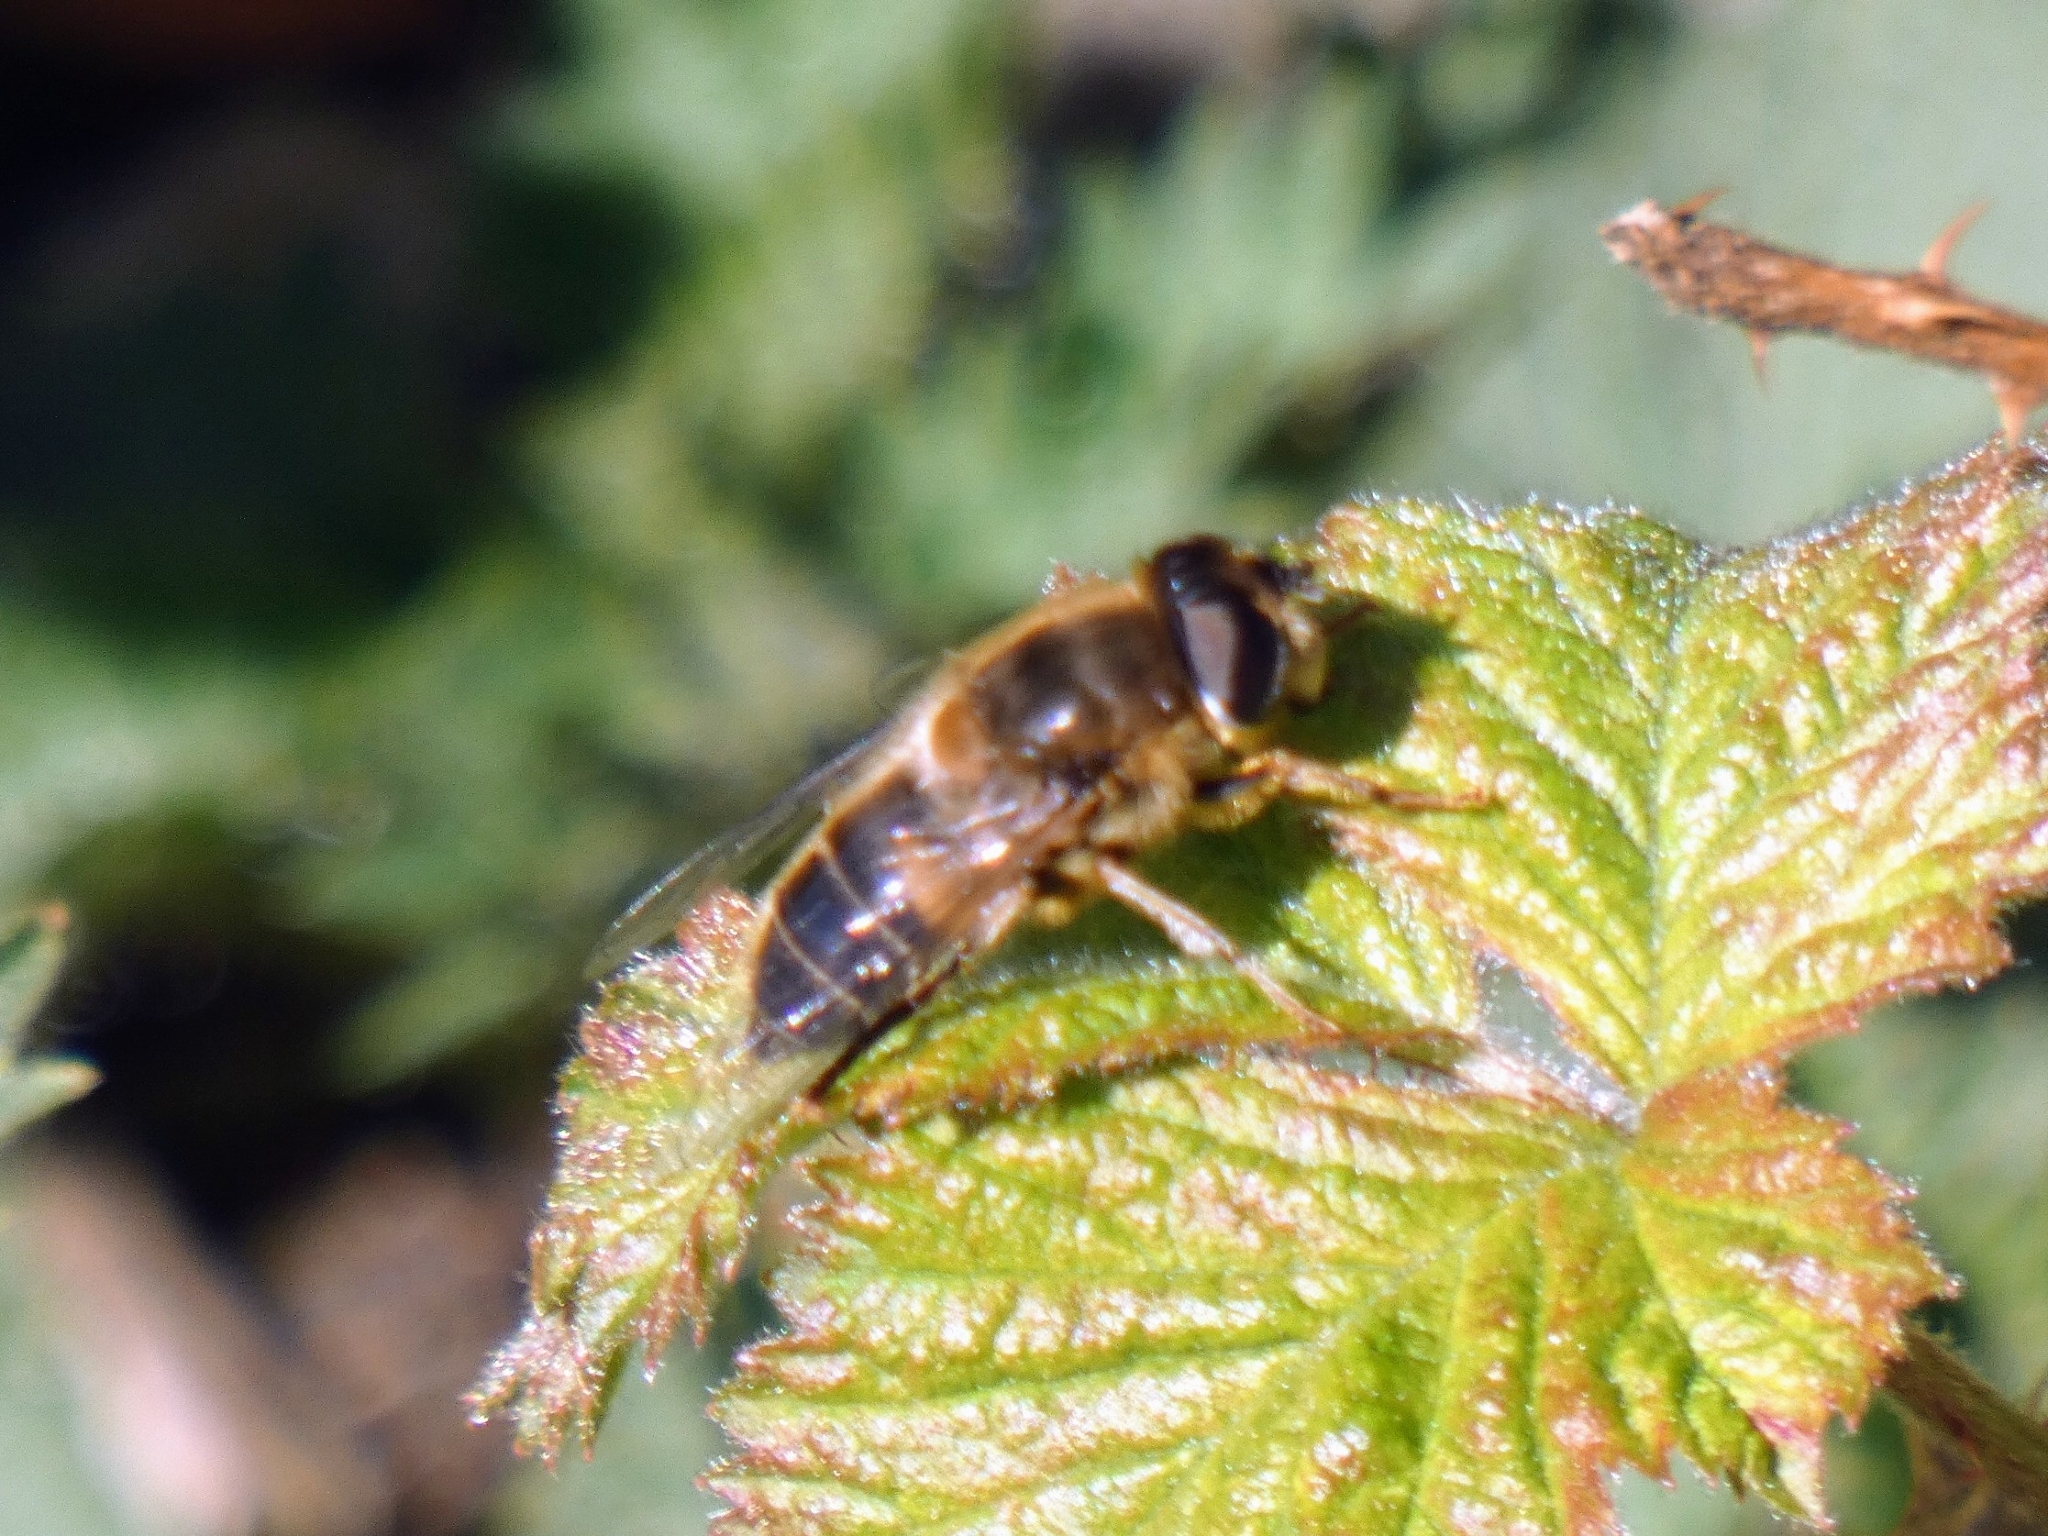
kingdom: Animalia
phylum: Arthropoda
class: Insecta
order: Diptera
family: Syrphidae
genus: Eristalis
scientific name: Eristalis pertinax
